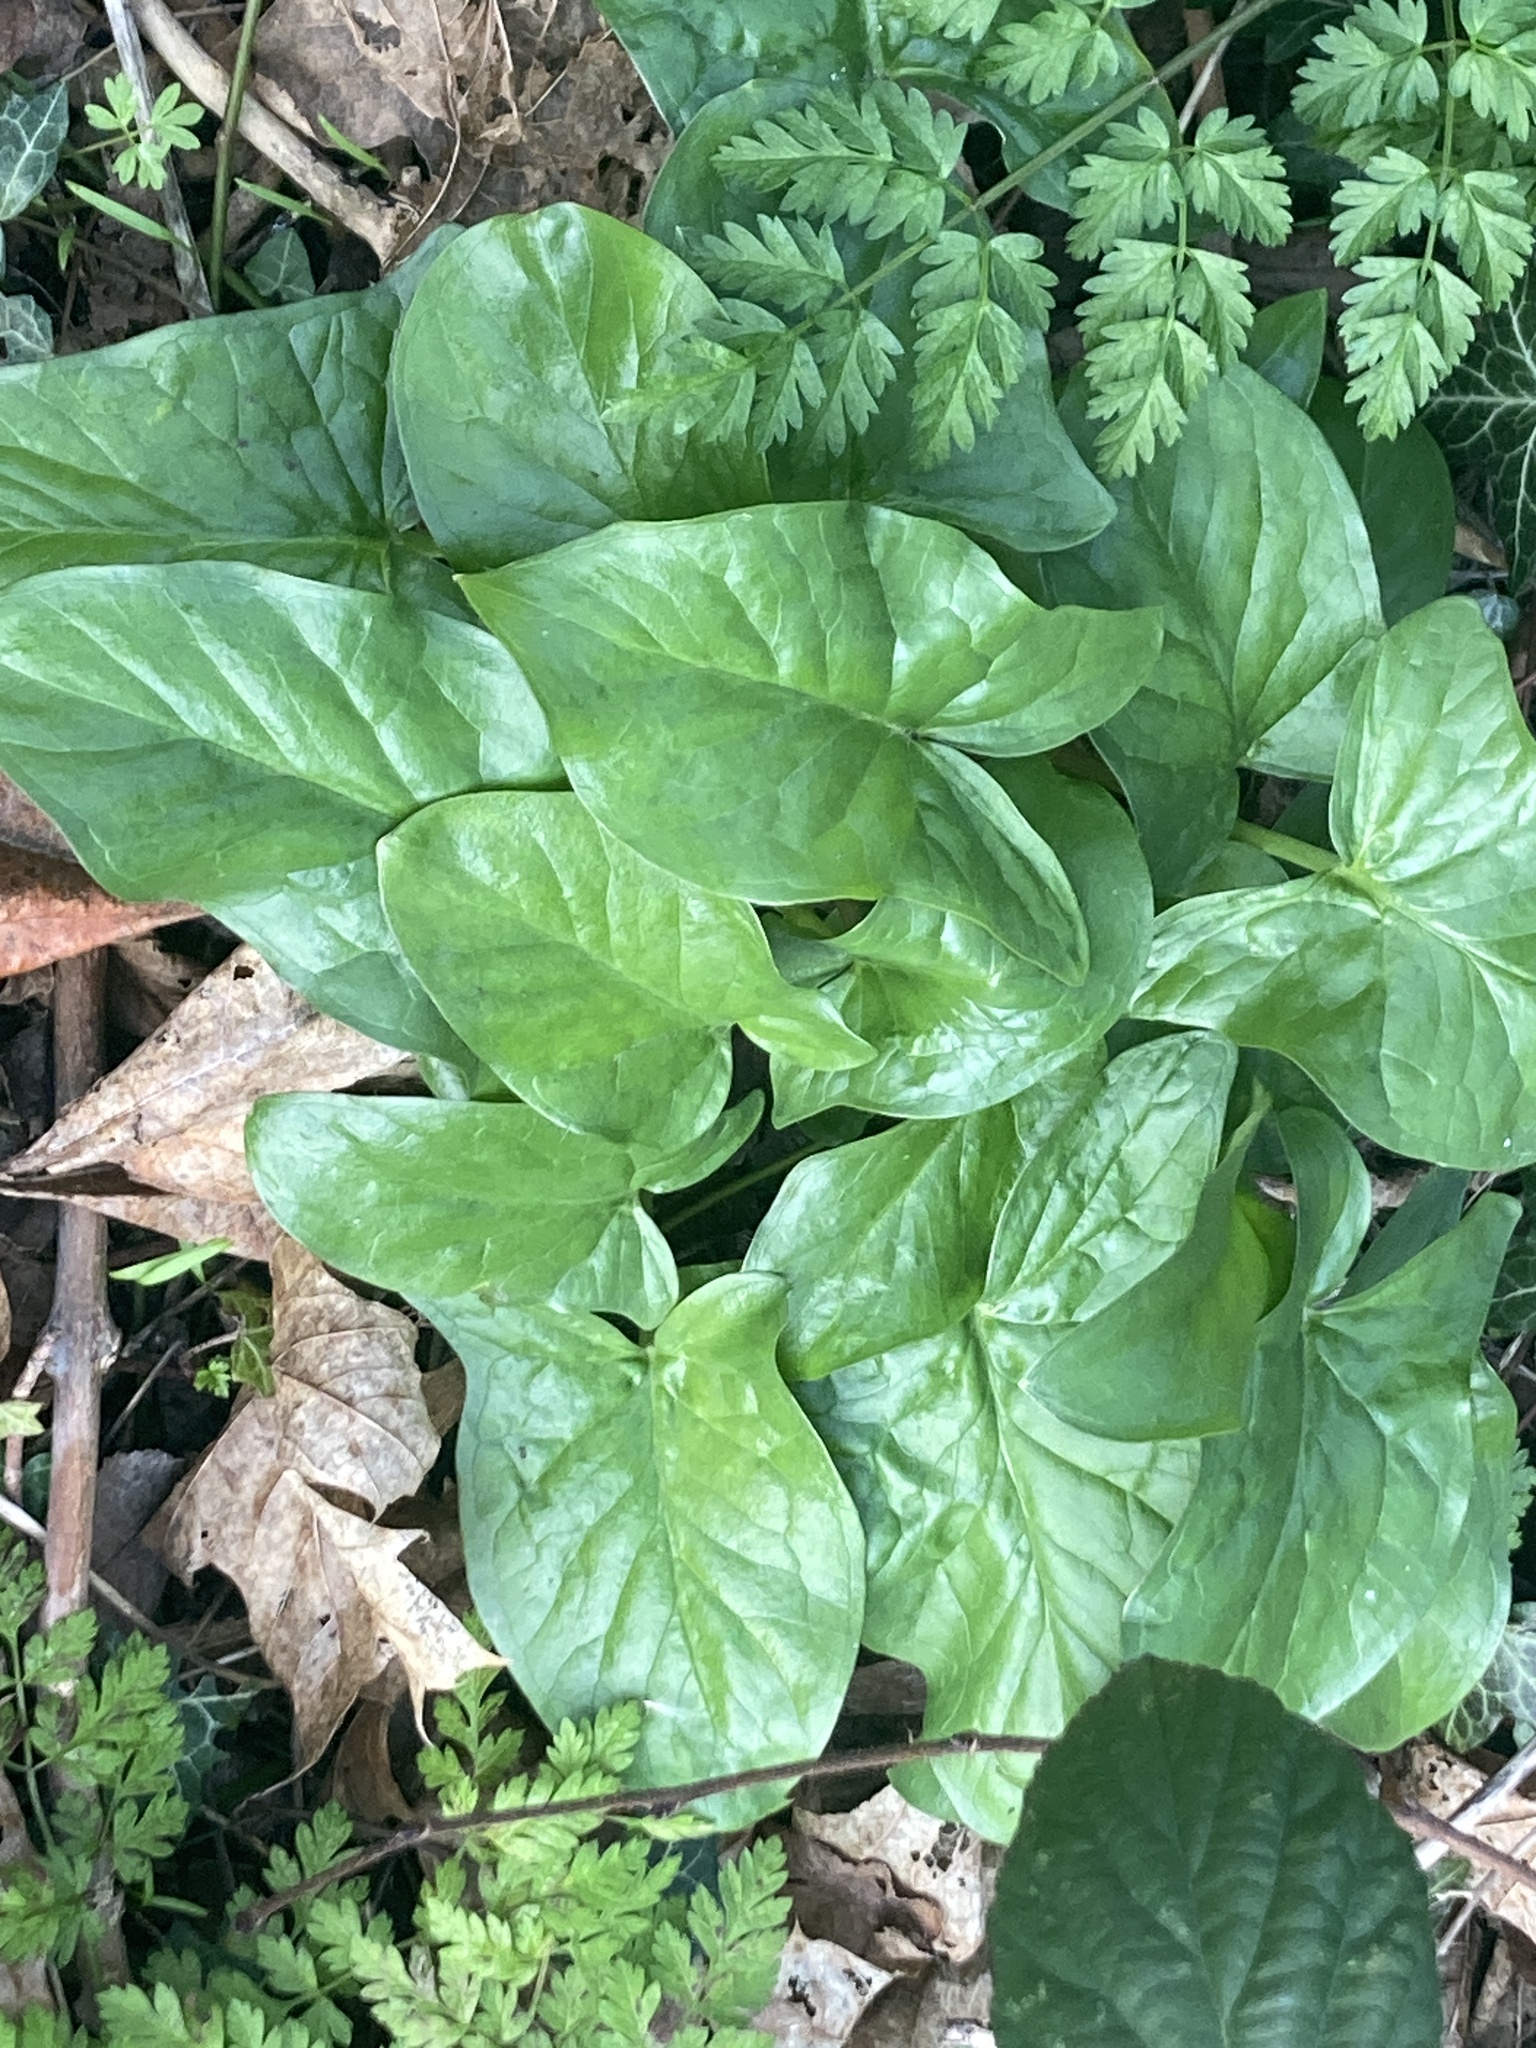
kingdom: Plantae
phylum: Tracheophyta
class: Liliopsida
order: Alismatales
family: Araceae
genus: Arum
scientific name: Arum maculatum
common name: Lords-and-ladies
